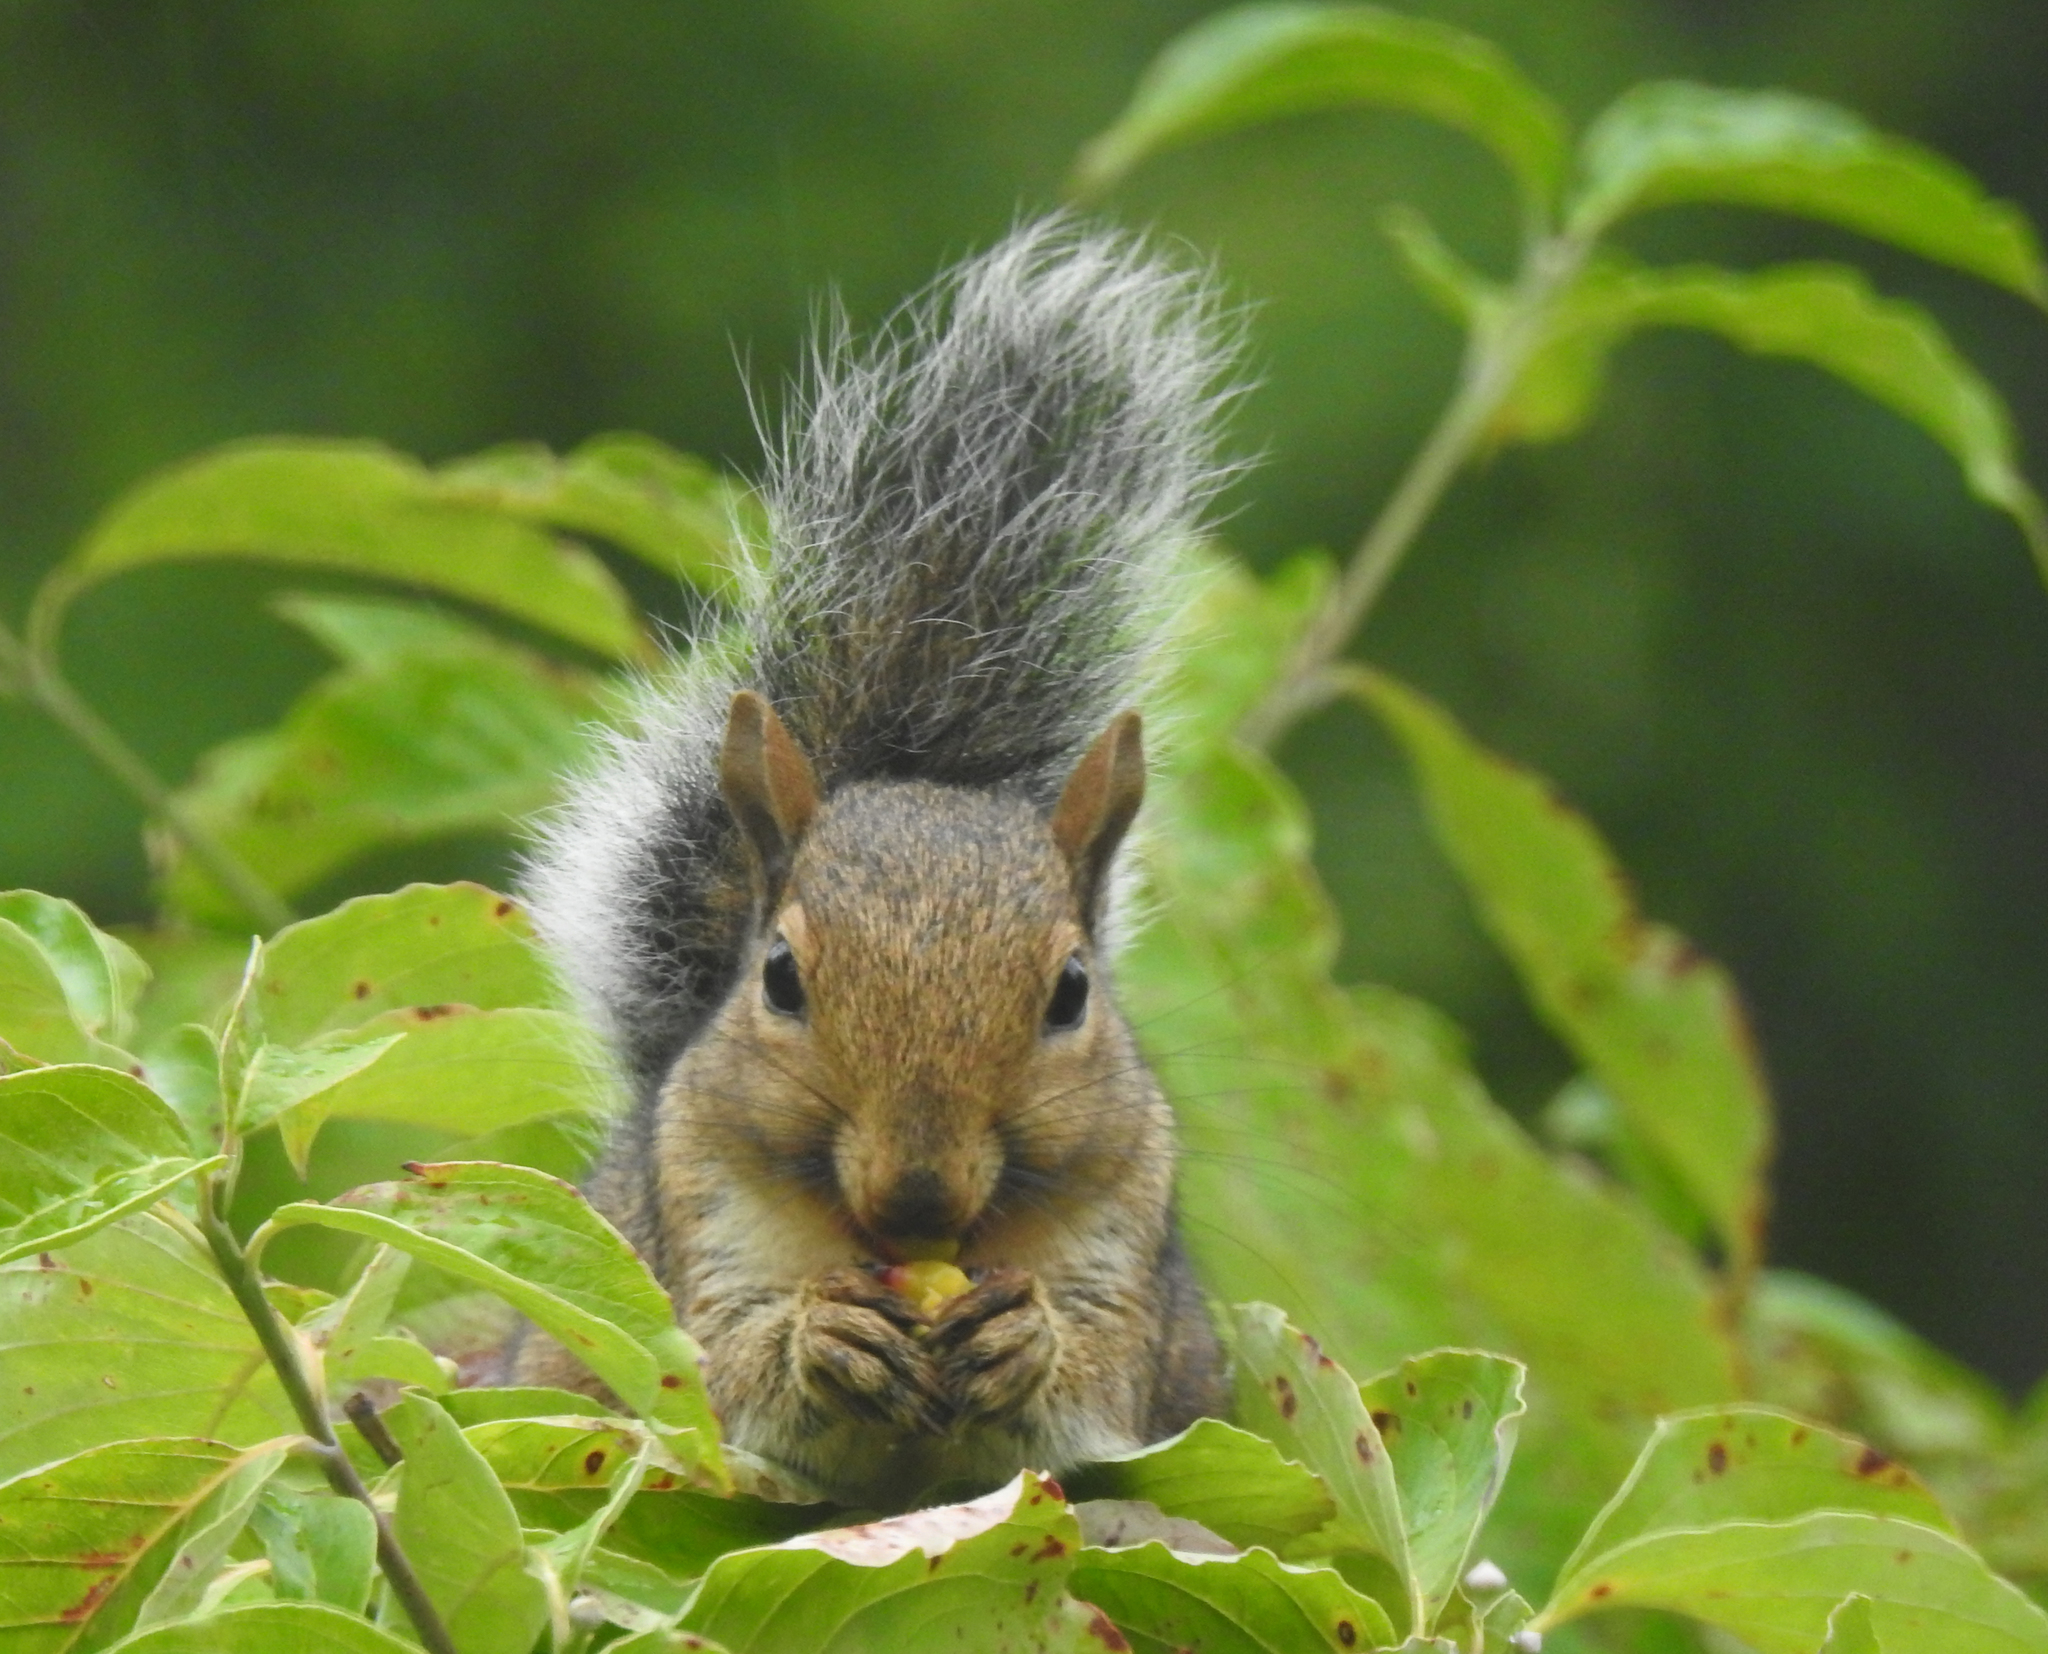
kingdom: Animalia
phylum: Chordata
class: Mammalia
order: Rodentia
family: Sciuridae
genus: Sciurus
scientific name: Sciurus carolinensis
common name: Eastern gray squirrel
